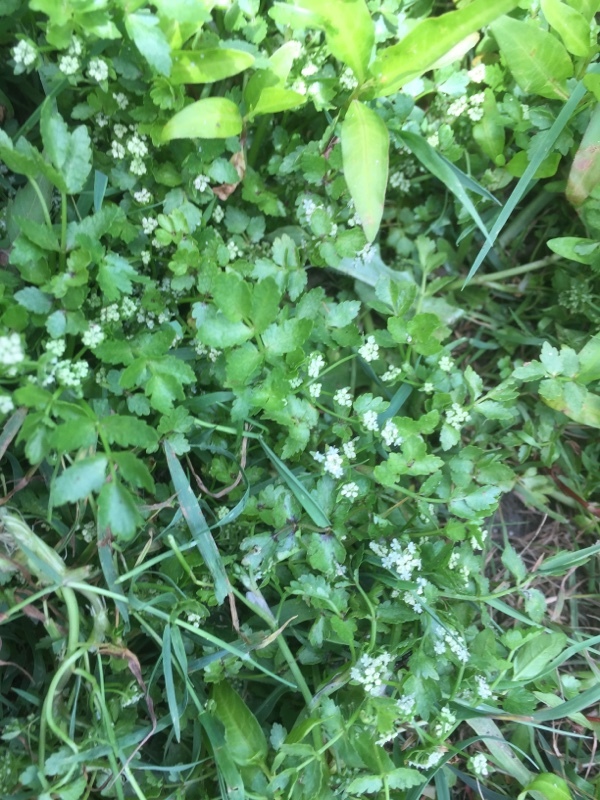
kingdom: Plantae
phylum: Tracheophyta
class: Magnoliopsida
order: Apiales
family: Apiaceae
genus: Helosciadium
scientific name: Helosciadium nodiflorum
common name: Fool's-watercress
